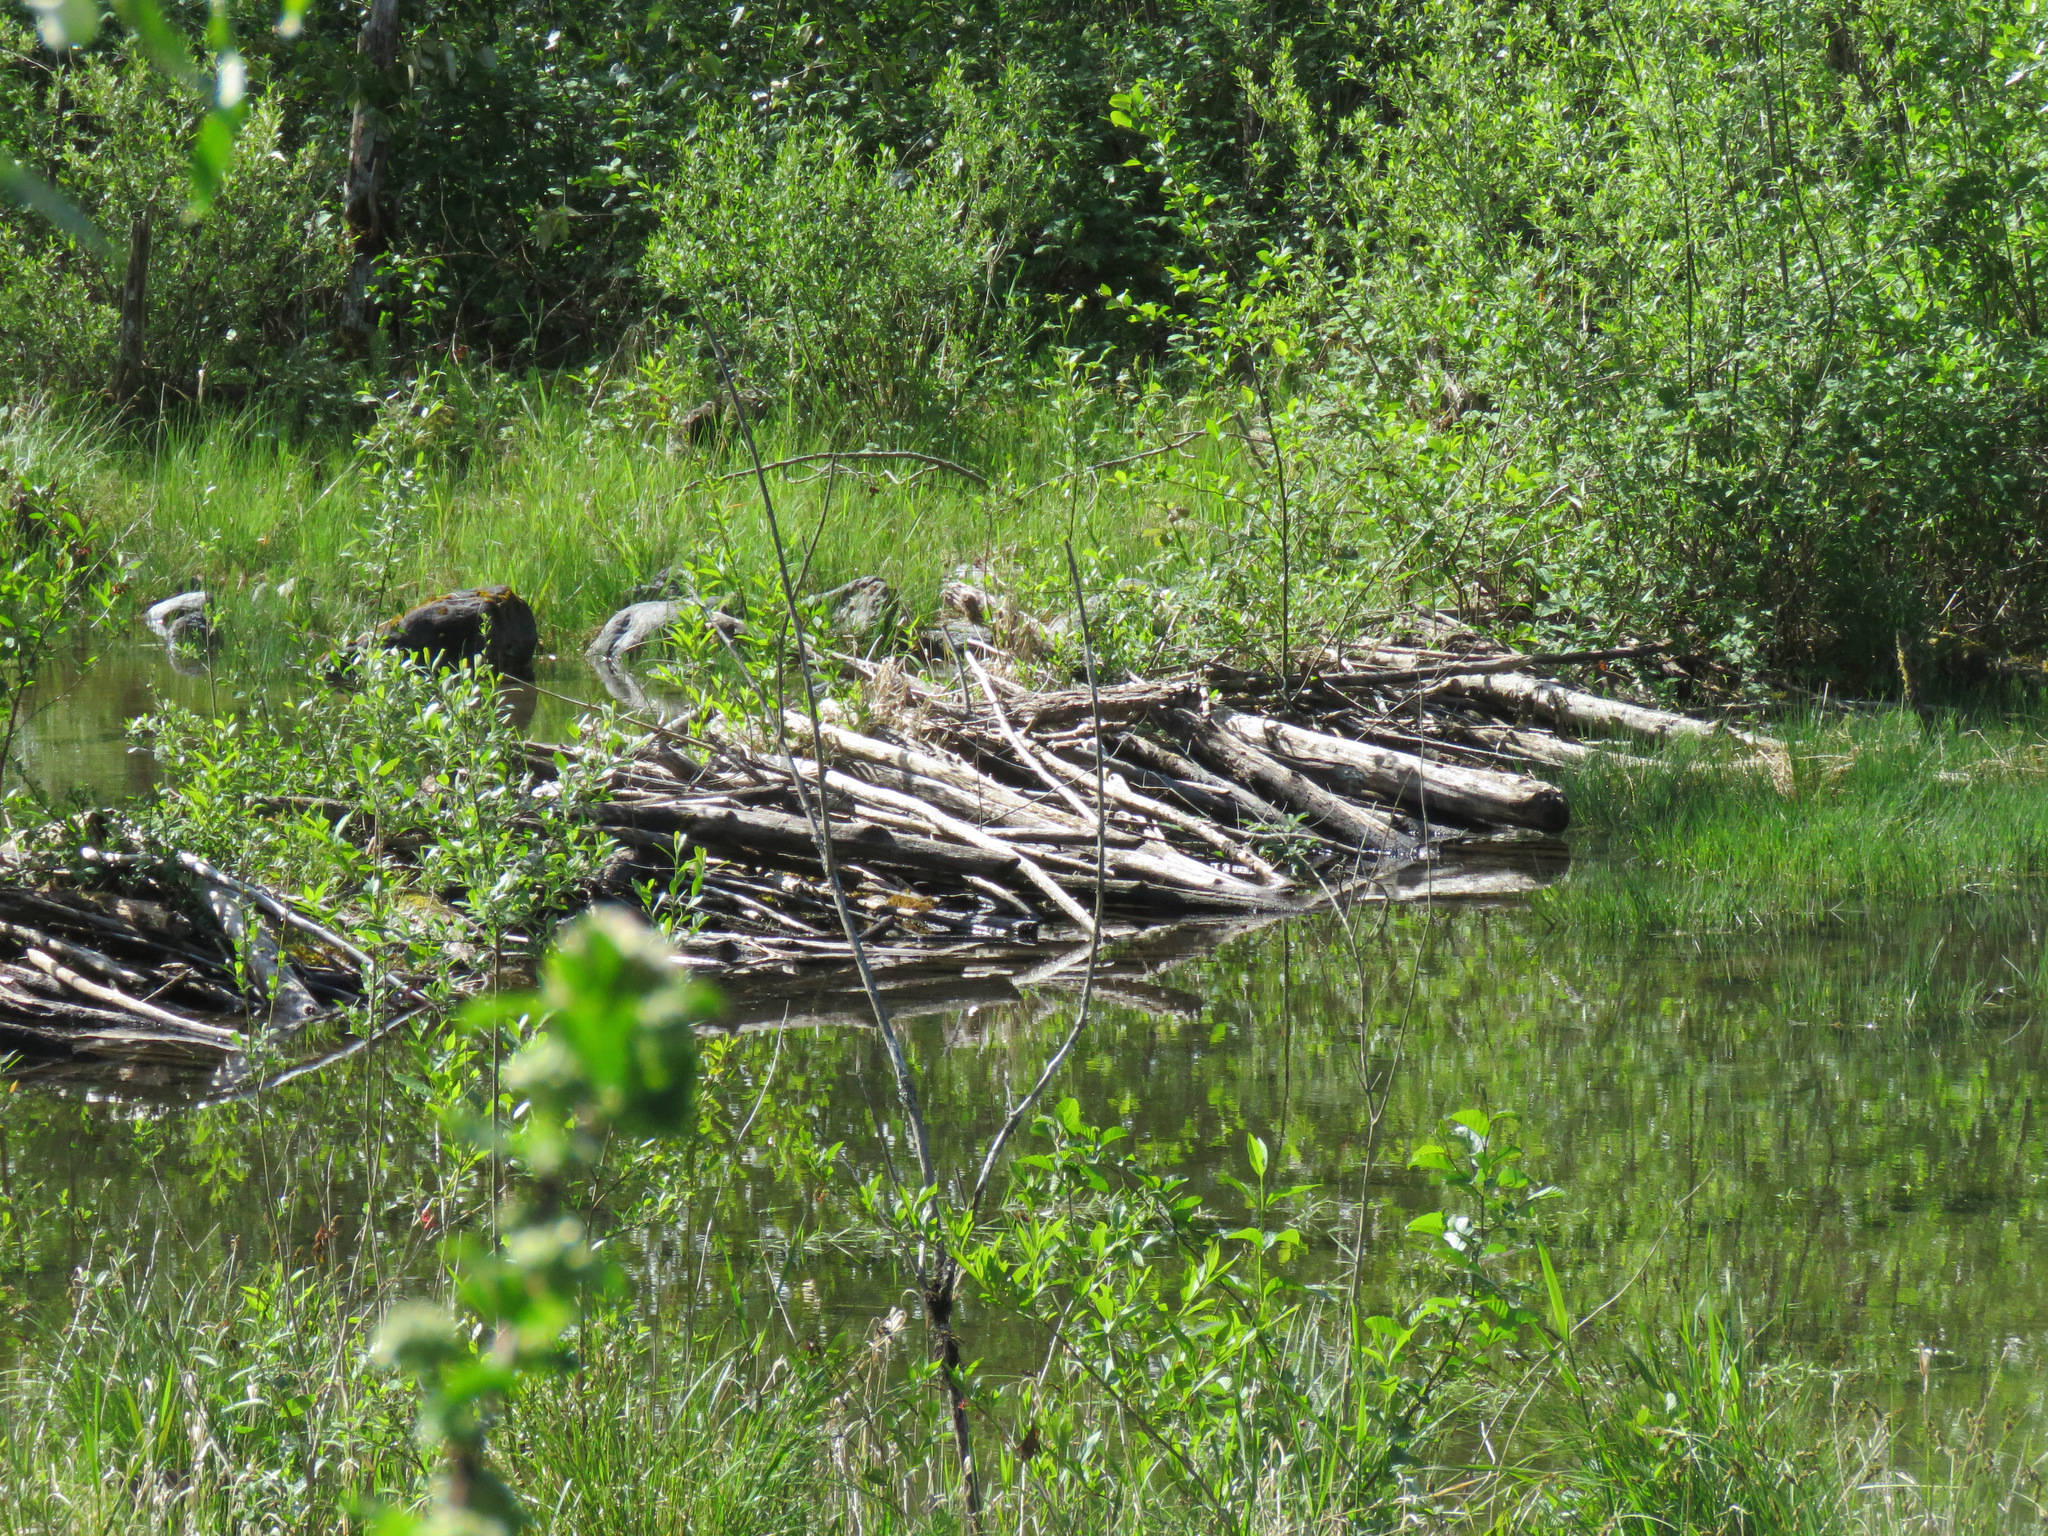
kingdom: Animalia
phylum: Chordata
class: Mammalia
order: Rodentia
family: Castoridae
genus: Castor
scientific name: Castor canadensis
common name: American beaver
